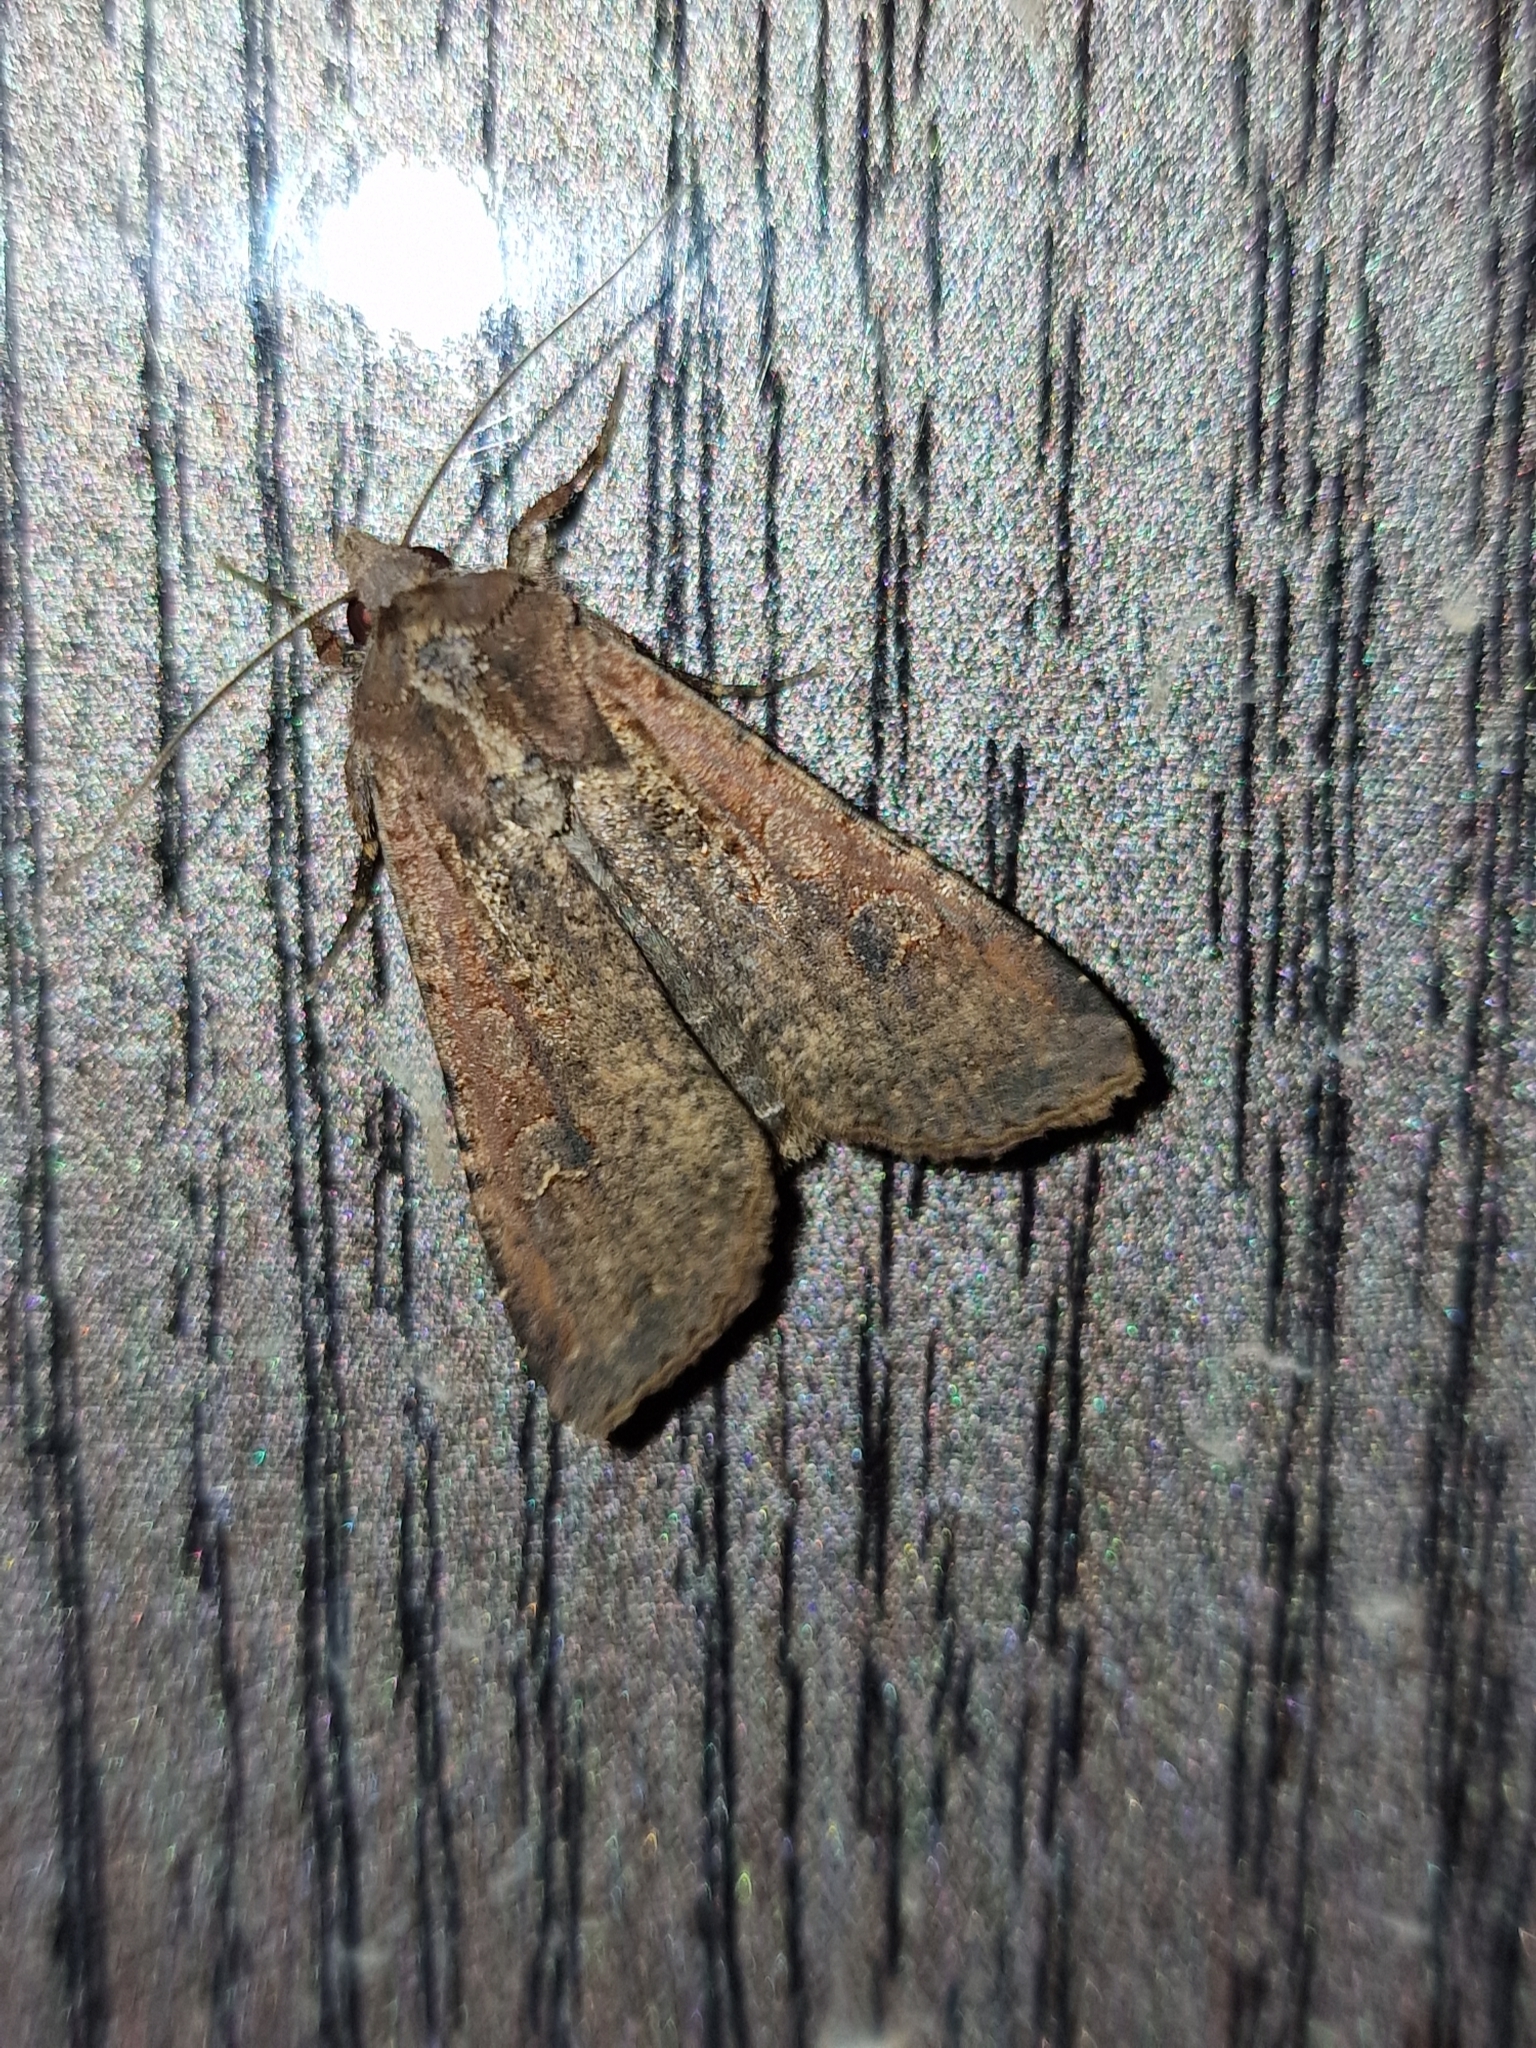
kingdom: Animalia
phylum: Arthropoda
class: Insecta
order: Lepidoptera
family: Noctuidae
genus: Peridroma
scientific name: Peridroma saucia
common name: Pearly underwing
